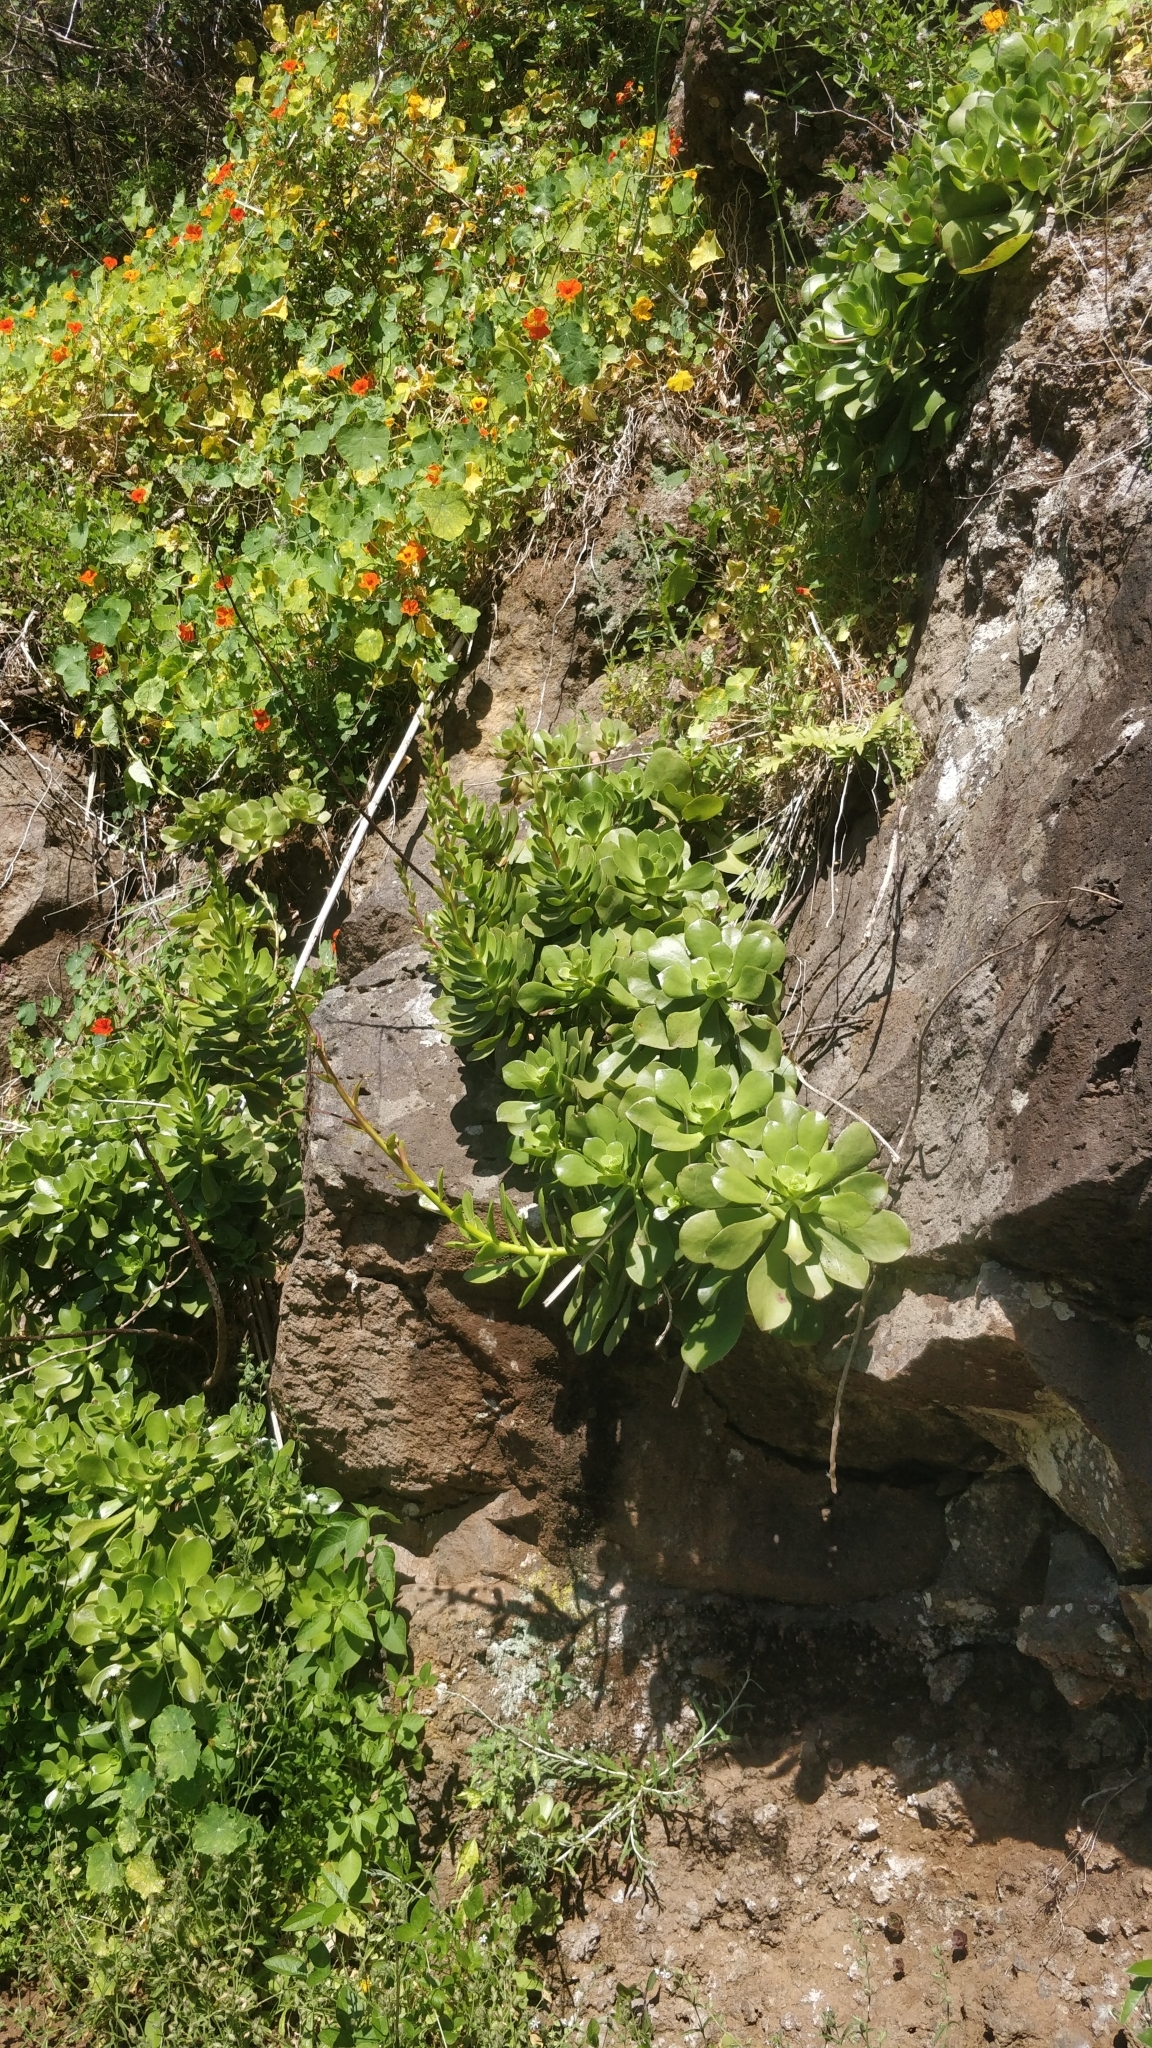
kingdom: Plantae
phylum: Tracheophyta
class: Magnoliopsida
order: Saxifragales
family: Crassulaceae
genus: Aeonium
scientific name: Aeonium glutinosum
